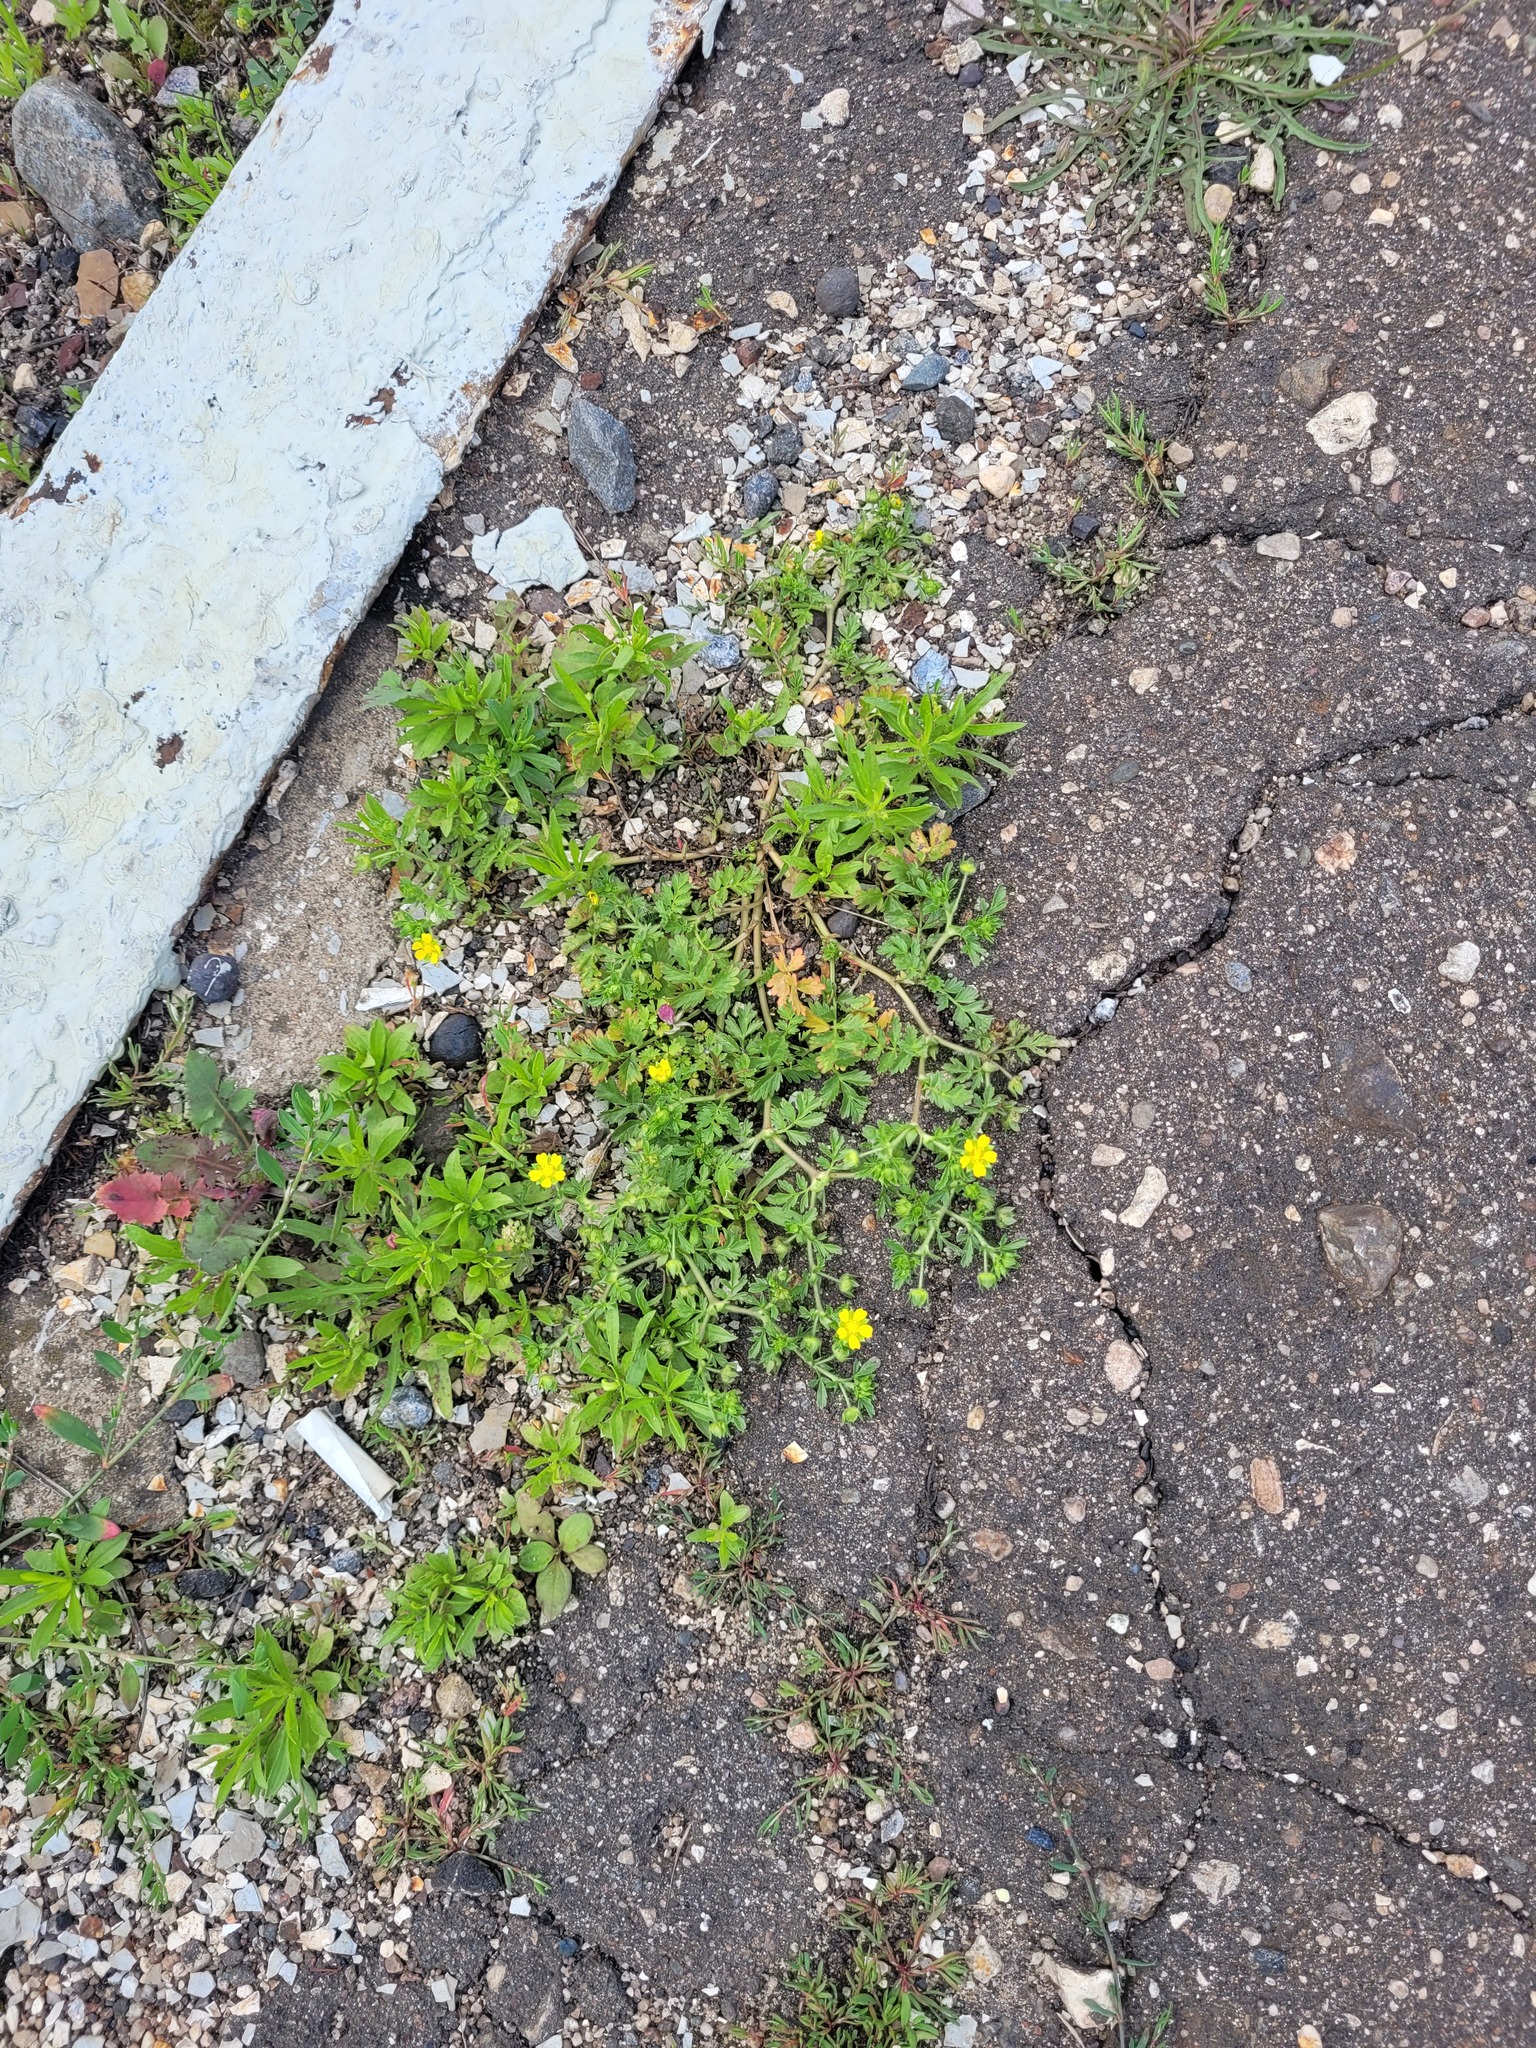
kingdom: Plantae
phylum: Tracheophyta
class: Magnoliopsida
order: Rosales
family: Rosaceae
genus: Potentilla
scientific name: Potentilla supina
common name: Prostrate cinquefoil
